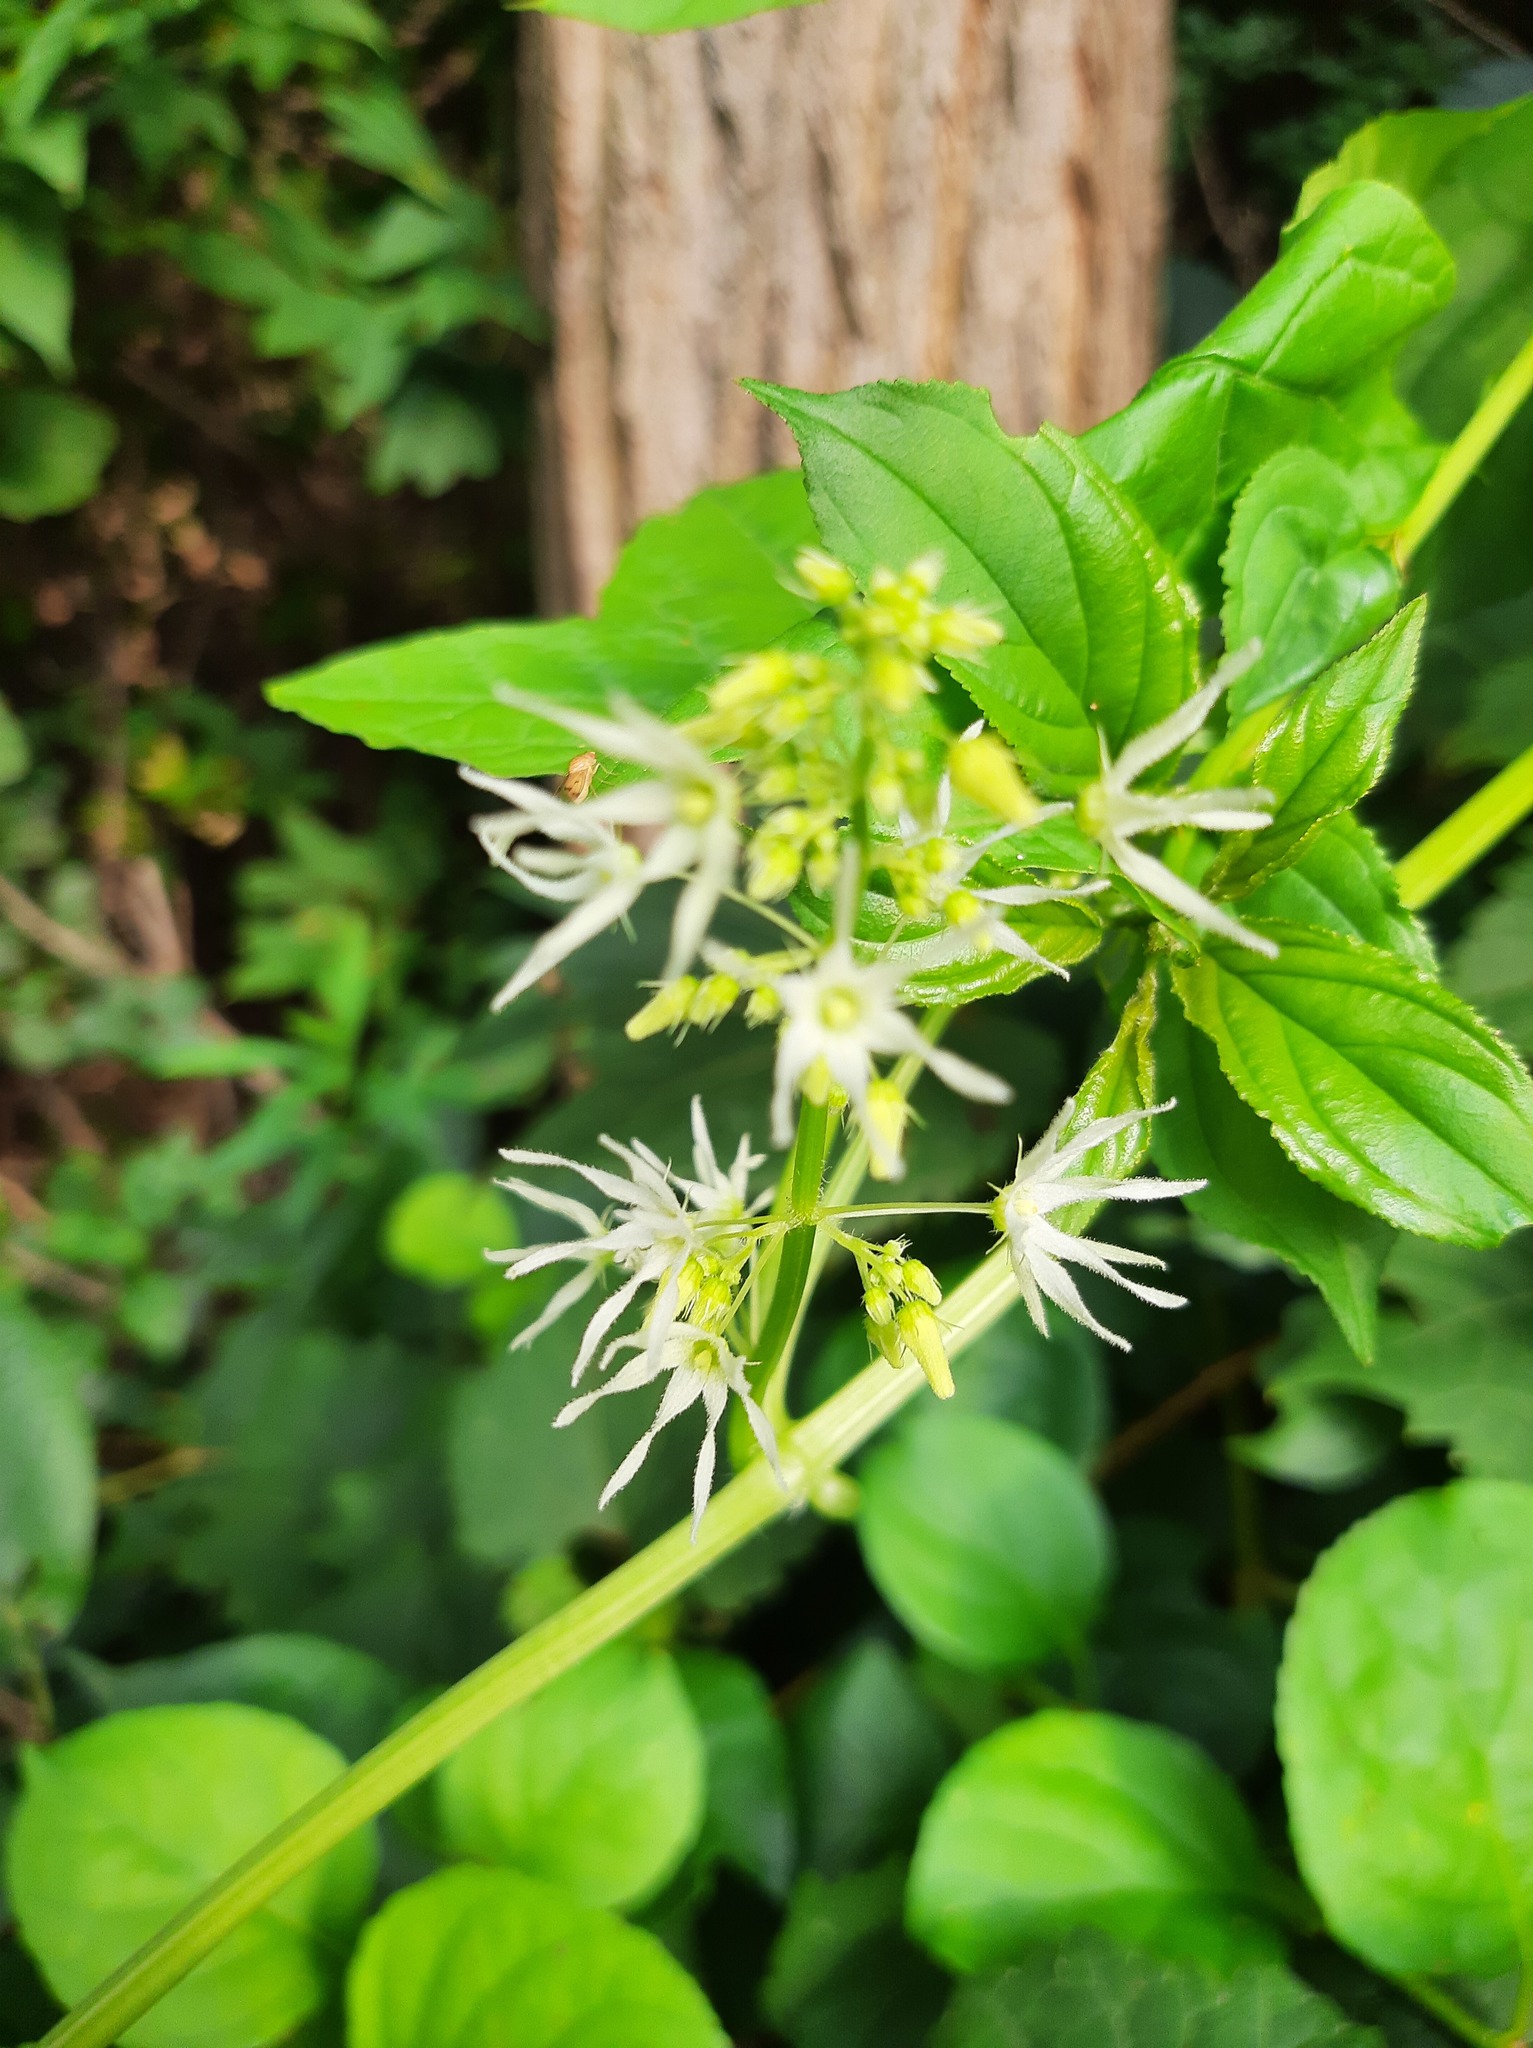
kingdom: Plantae
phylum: Tracheophyta
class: Magnoliopsida
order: Cucurbitales
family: Cucurbitaceae
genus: Echinocystis
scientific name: Echinocystis lobata
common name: Wild cucumber
